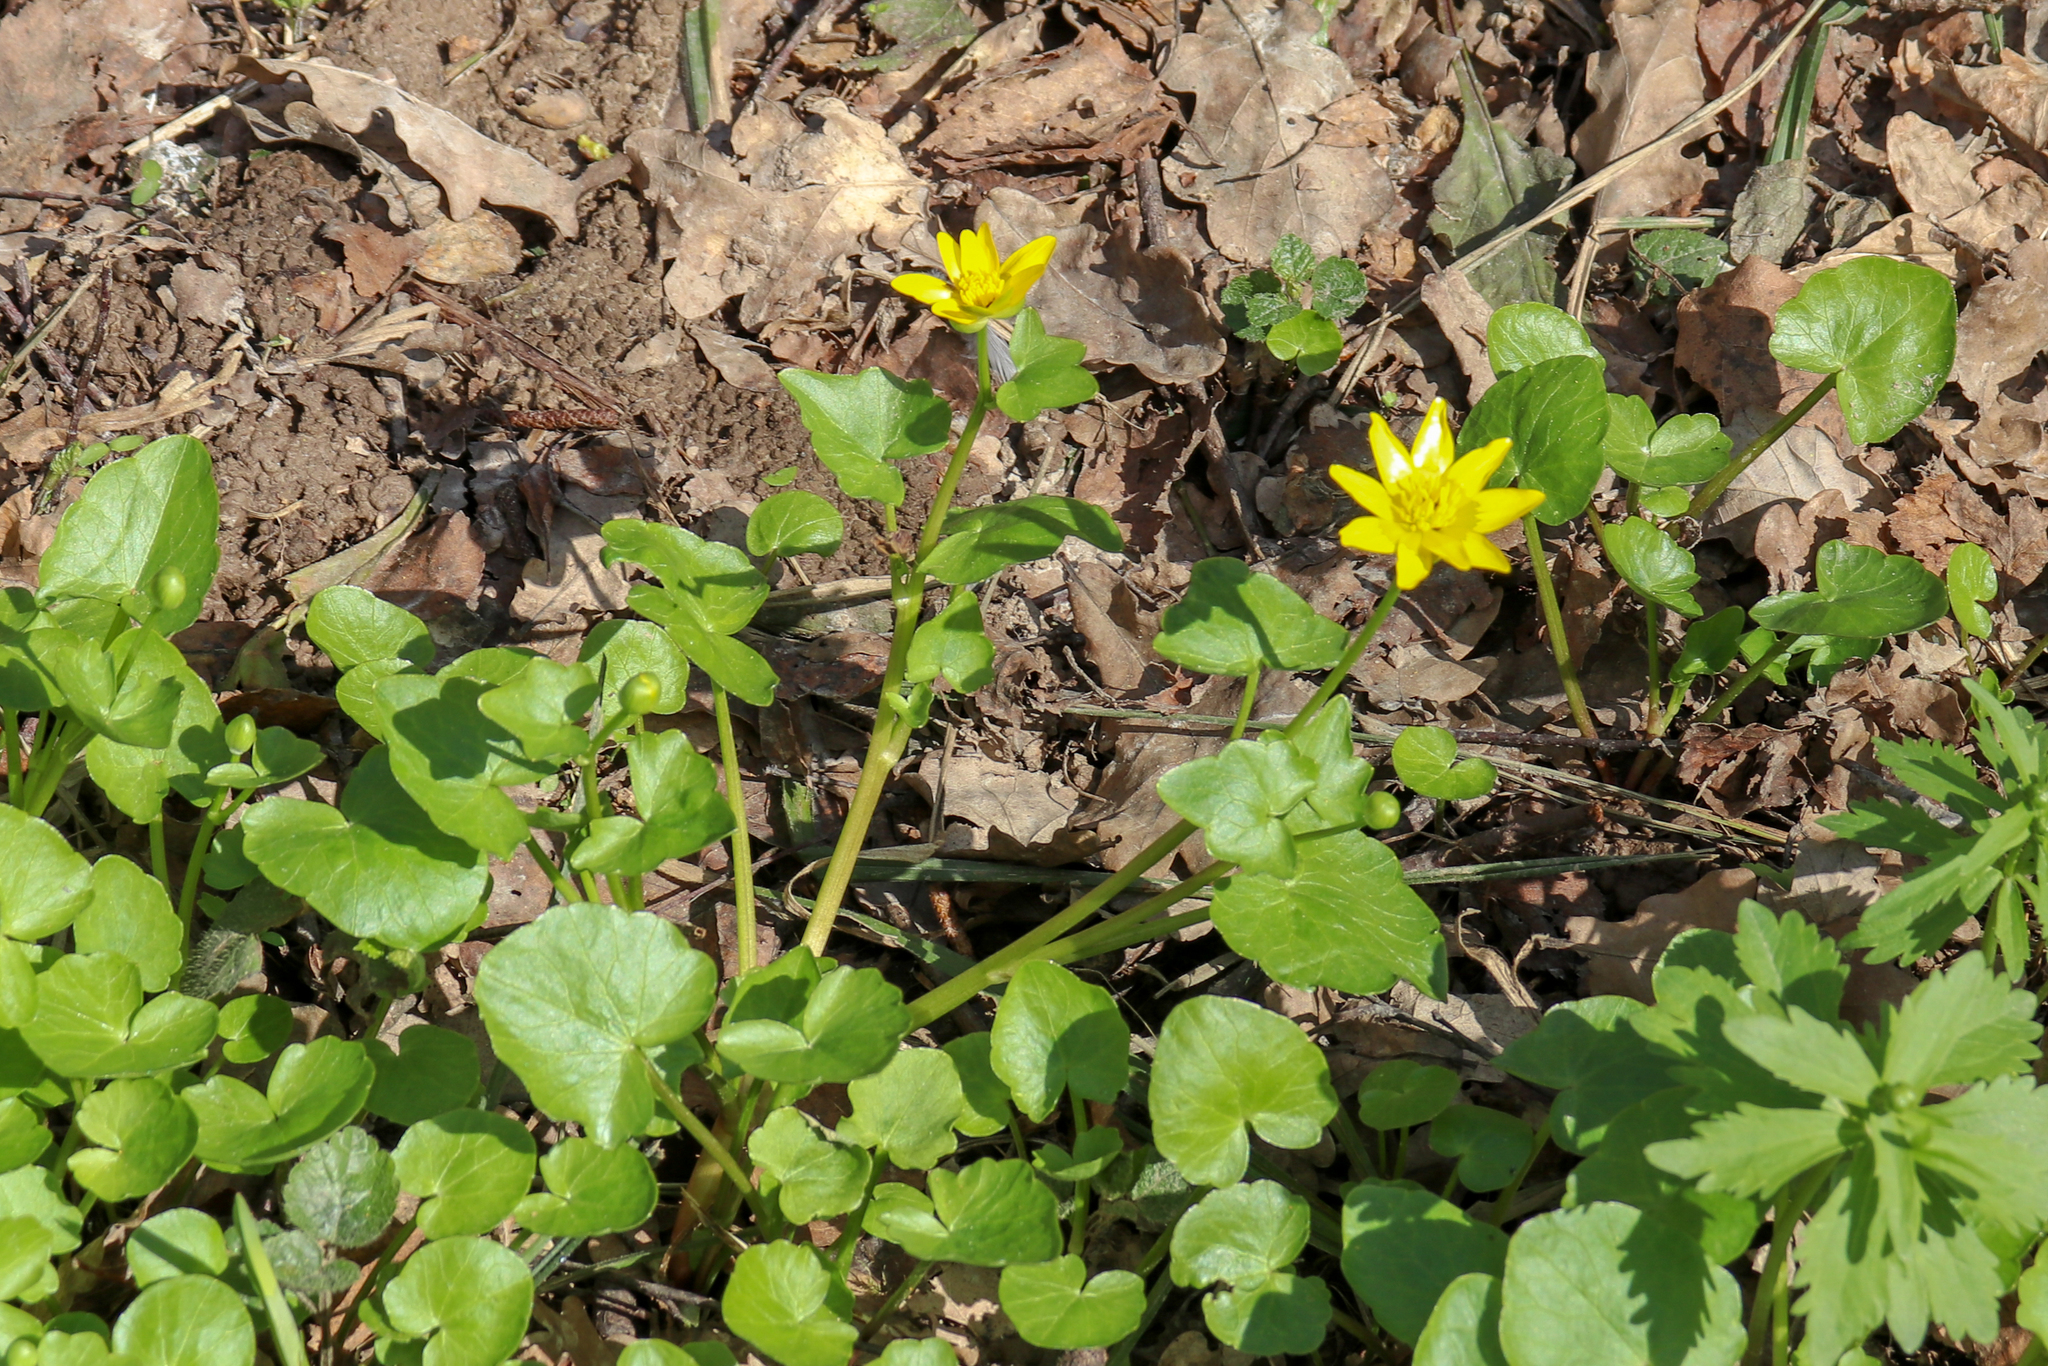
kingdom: Plantae
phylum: Tracheophyta
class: Magnoliopsida
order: Ranunculales
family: Ranunculaceae
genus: Ficaria
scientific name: Ficaria verna
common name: Lesser celandine
